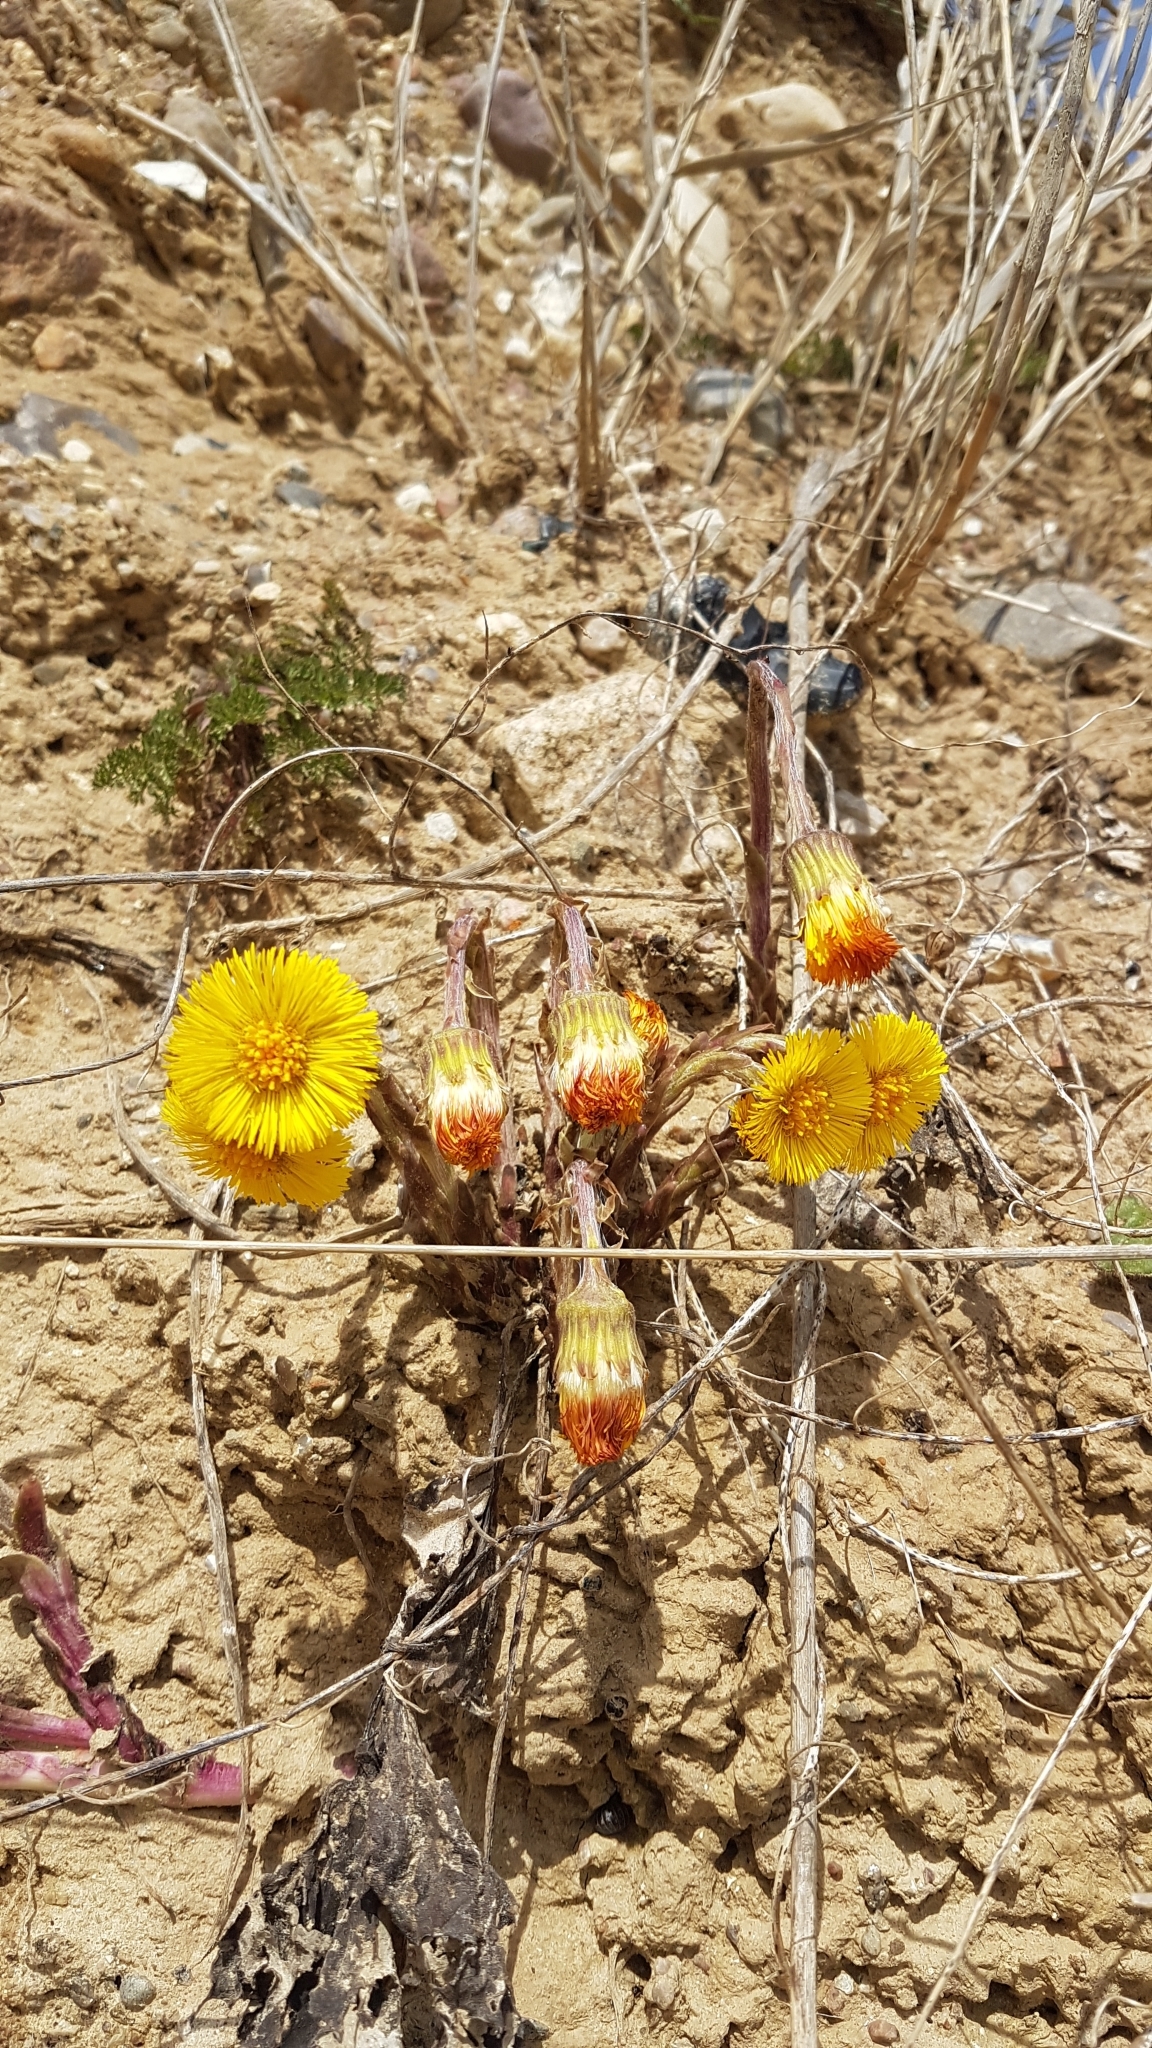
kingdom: Plantae
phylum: Tracheophyta
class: Magnoliopsida
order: Asterales
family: Asteraceae
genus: Tussilago
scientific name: Tussilago farfara
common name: Coltsfoot
